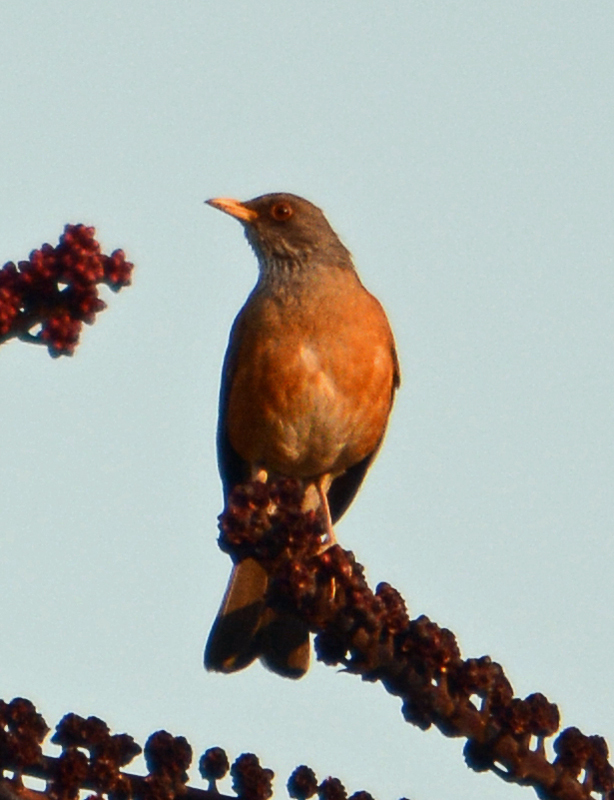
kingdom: Animalia
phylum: Chordata
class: Aves
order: Passeriformes
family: Turdidae
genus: Turdus
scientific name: Turdus rufopalliatus
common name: Rufous-backed robin
